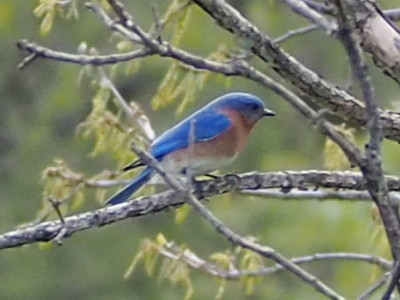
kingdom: Animalia
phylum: Chordata
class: Aves
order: Passeriformes
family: Turdidae
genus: Sialia
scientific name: Sialia sialis
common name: Eastern bluebird
